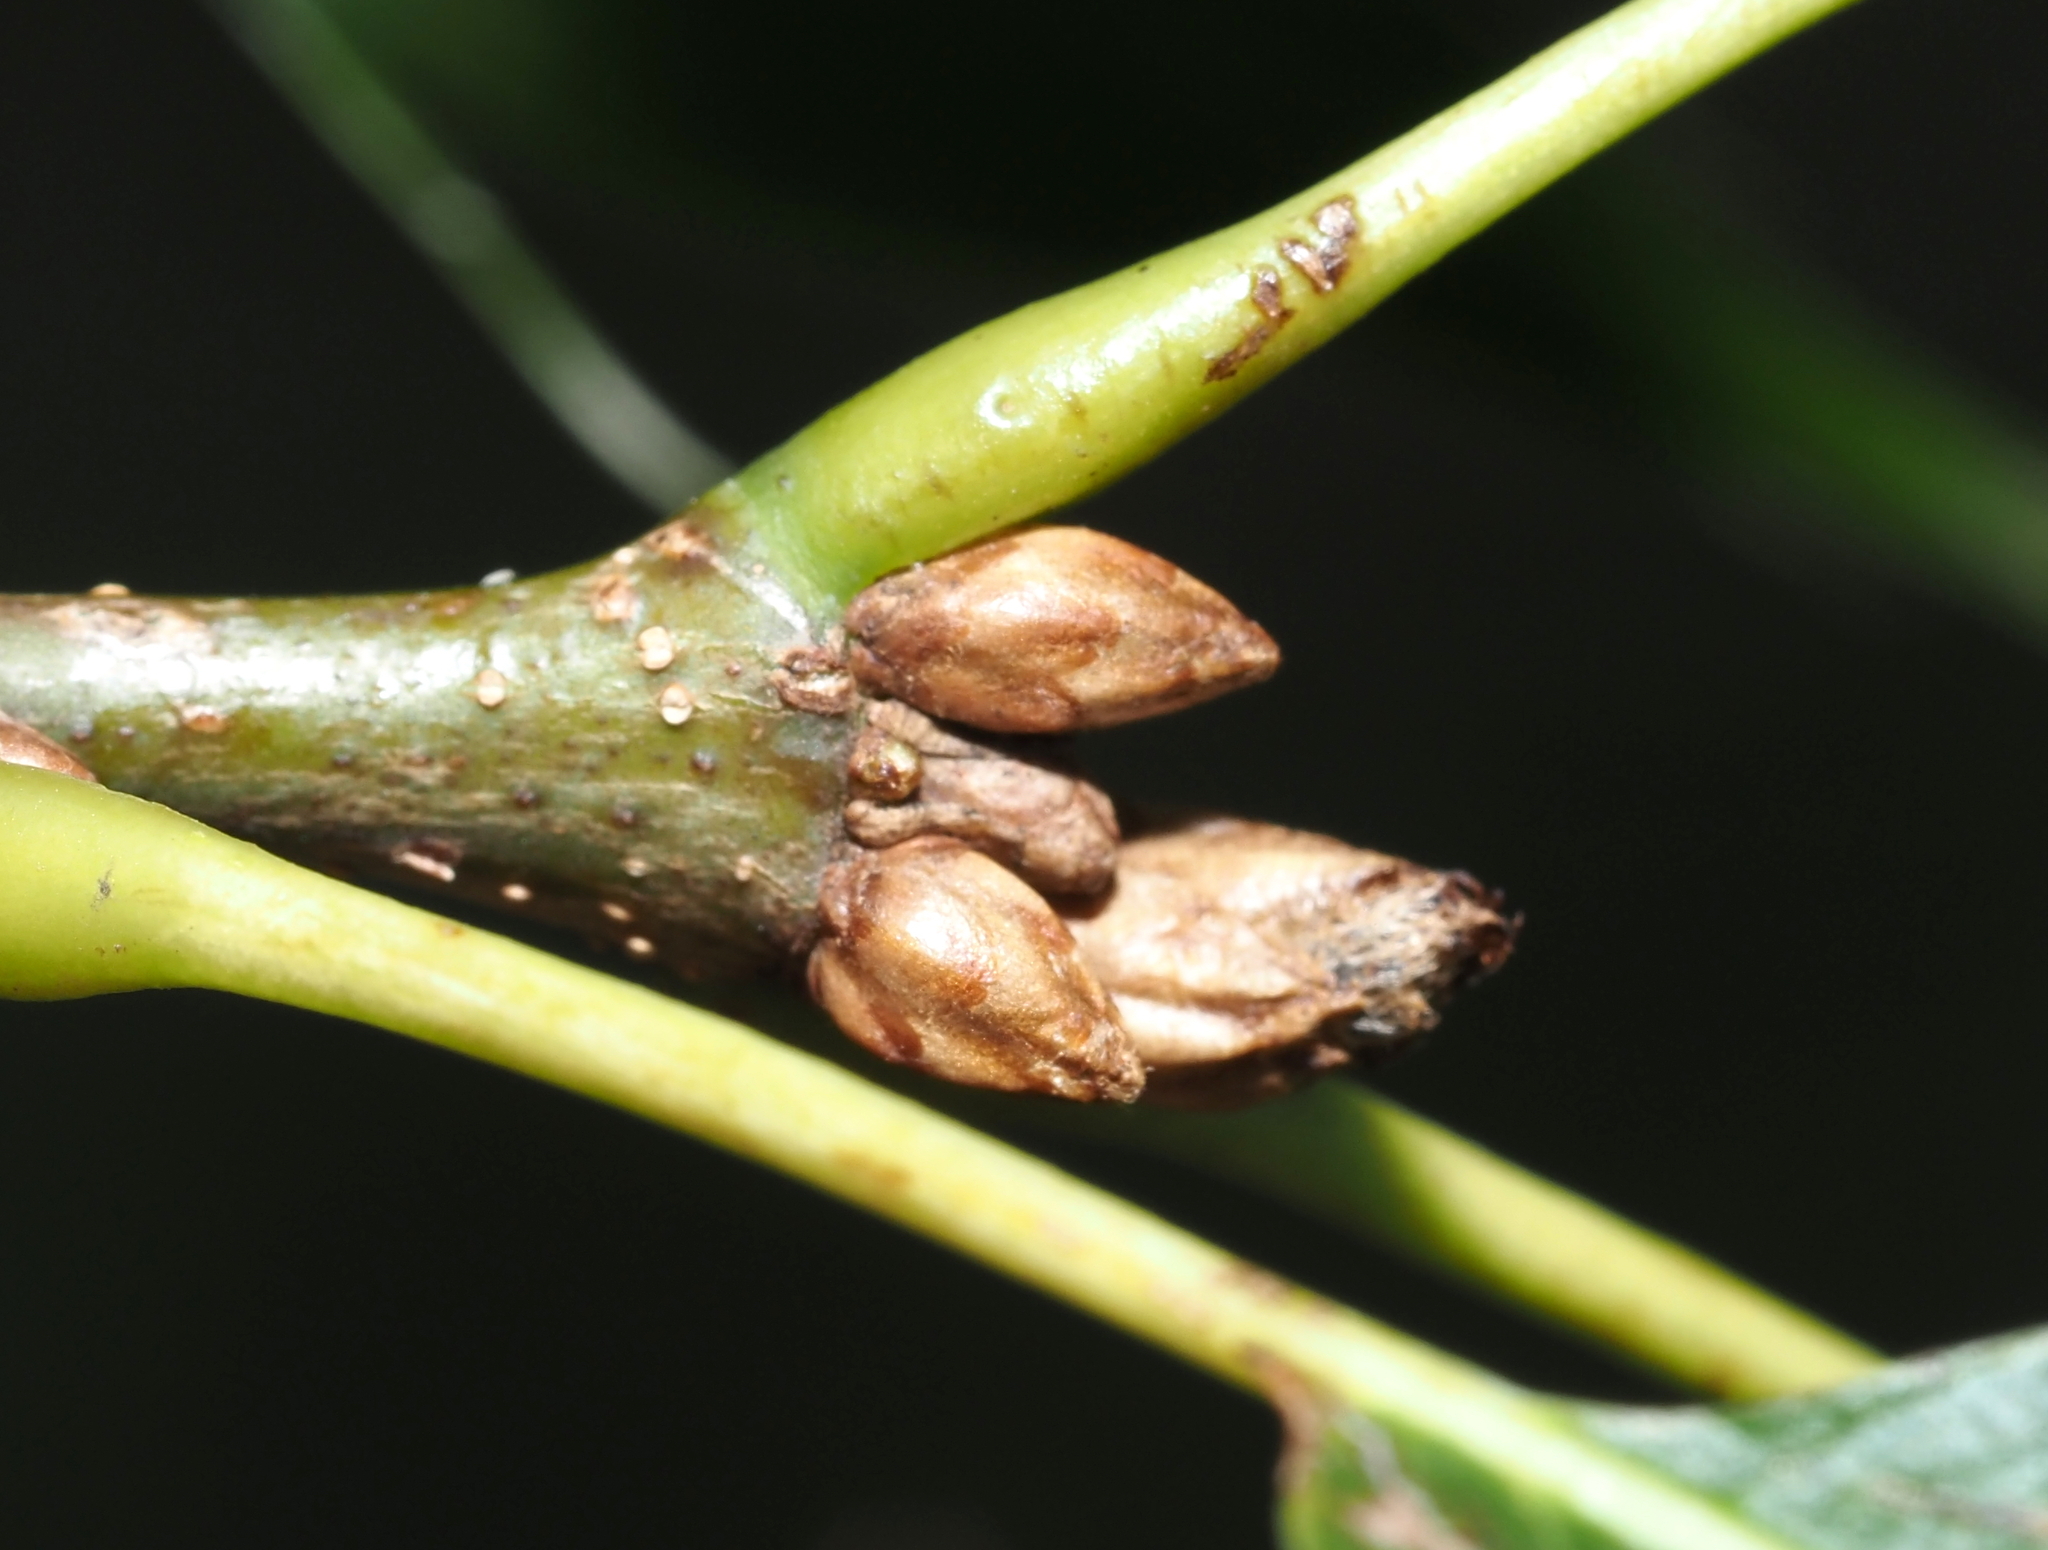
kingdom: Plantae
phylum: Tracheophyta
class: Magnoliopsida
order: Fagales
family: Fagaceae
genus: Quercus
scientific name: Quercus palustris
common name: Pin oak
